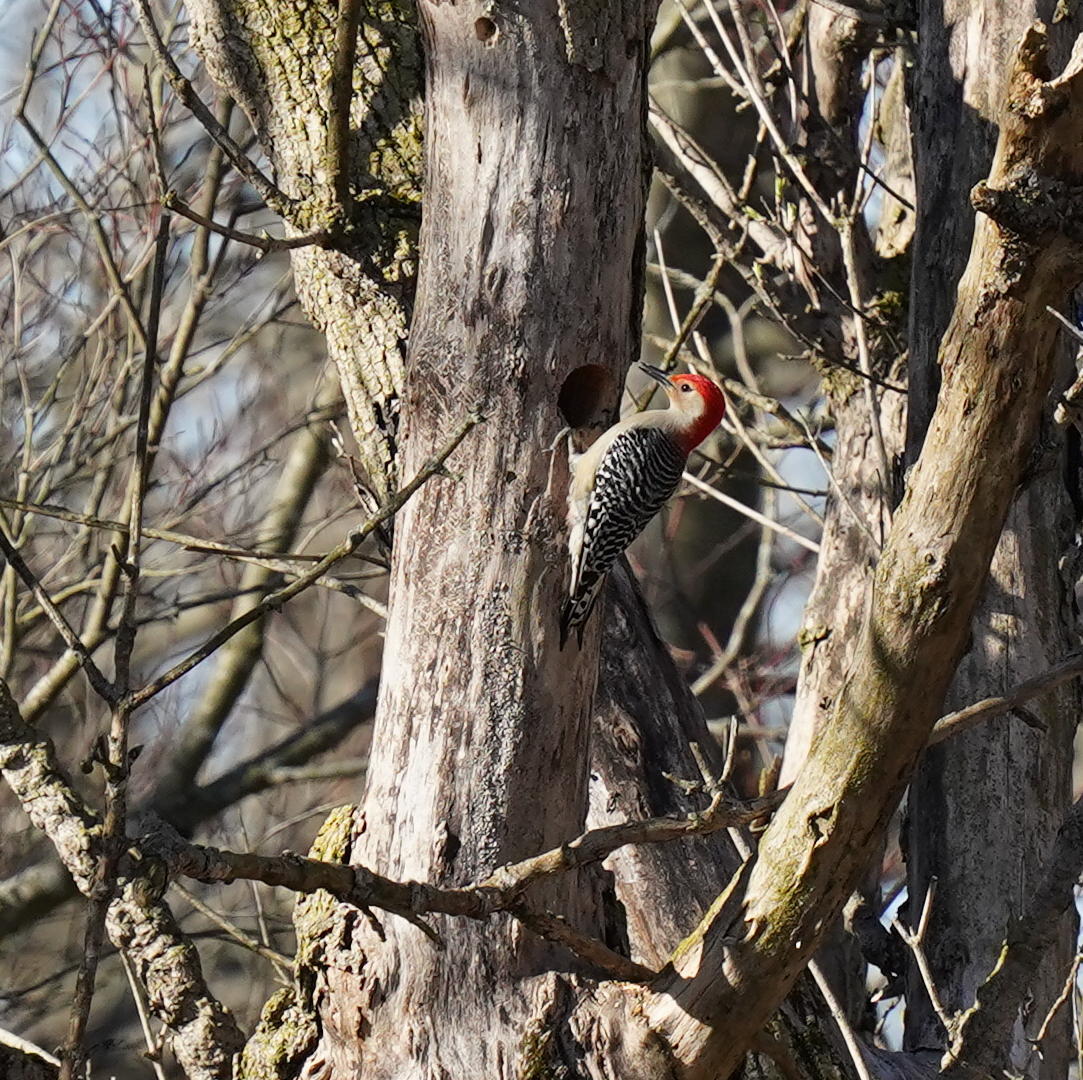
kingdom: Animalia
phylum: Chordata
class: Aves
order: Piciformes
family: Picidae
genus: Melanerpes
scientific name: Melanerpes carolinus
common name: Red-bellied woodpecker
